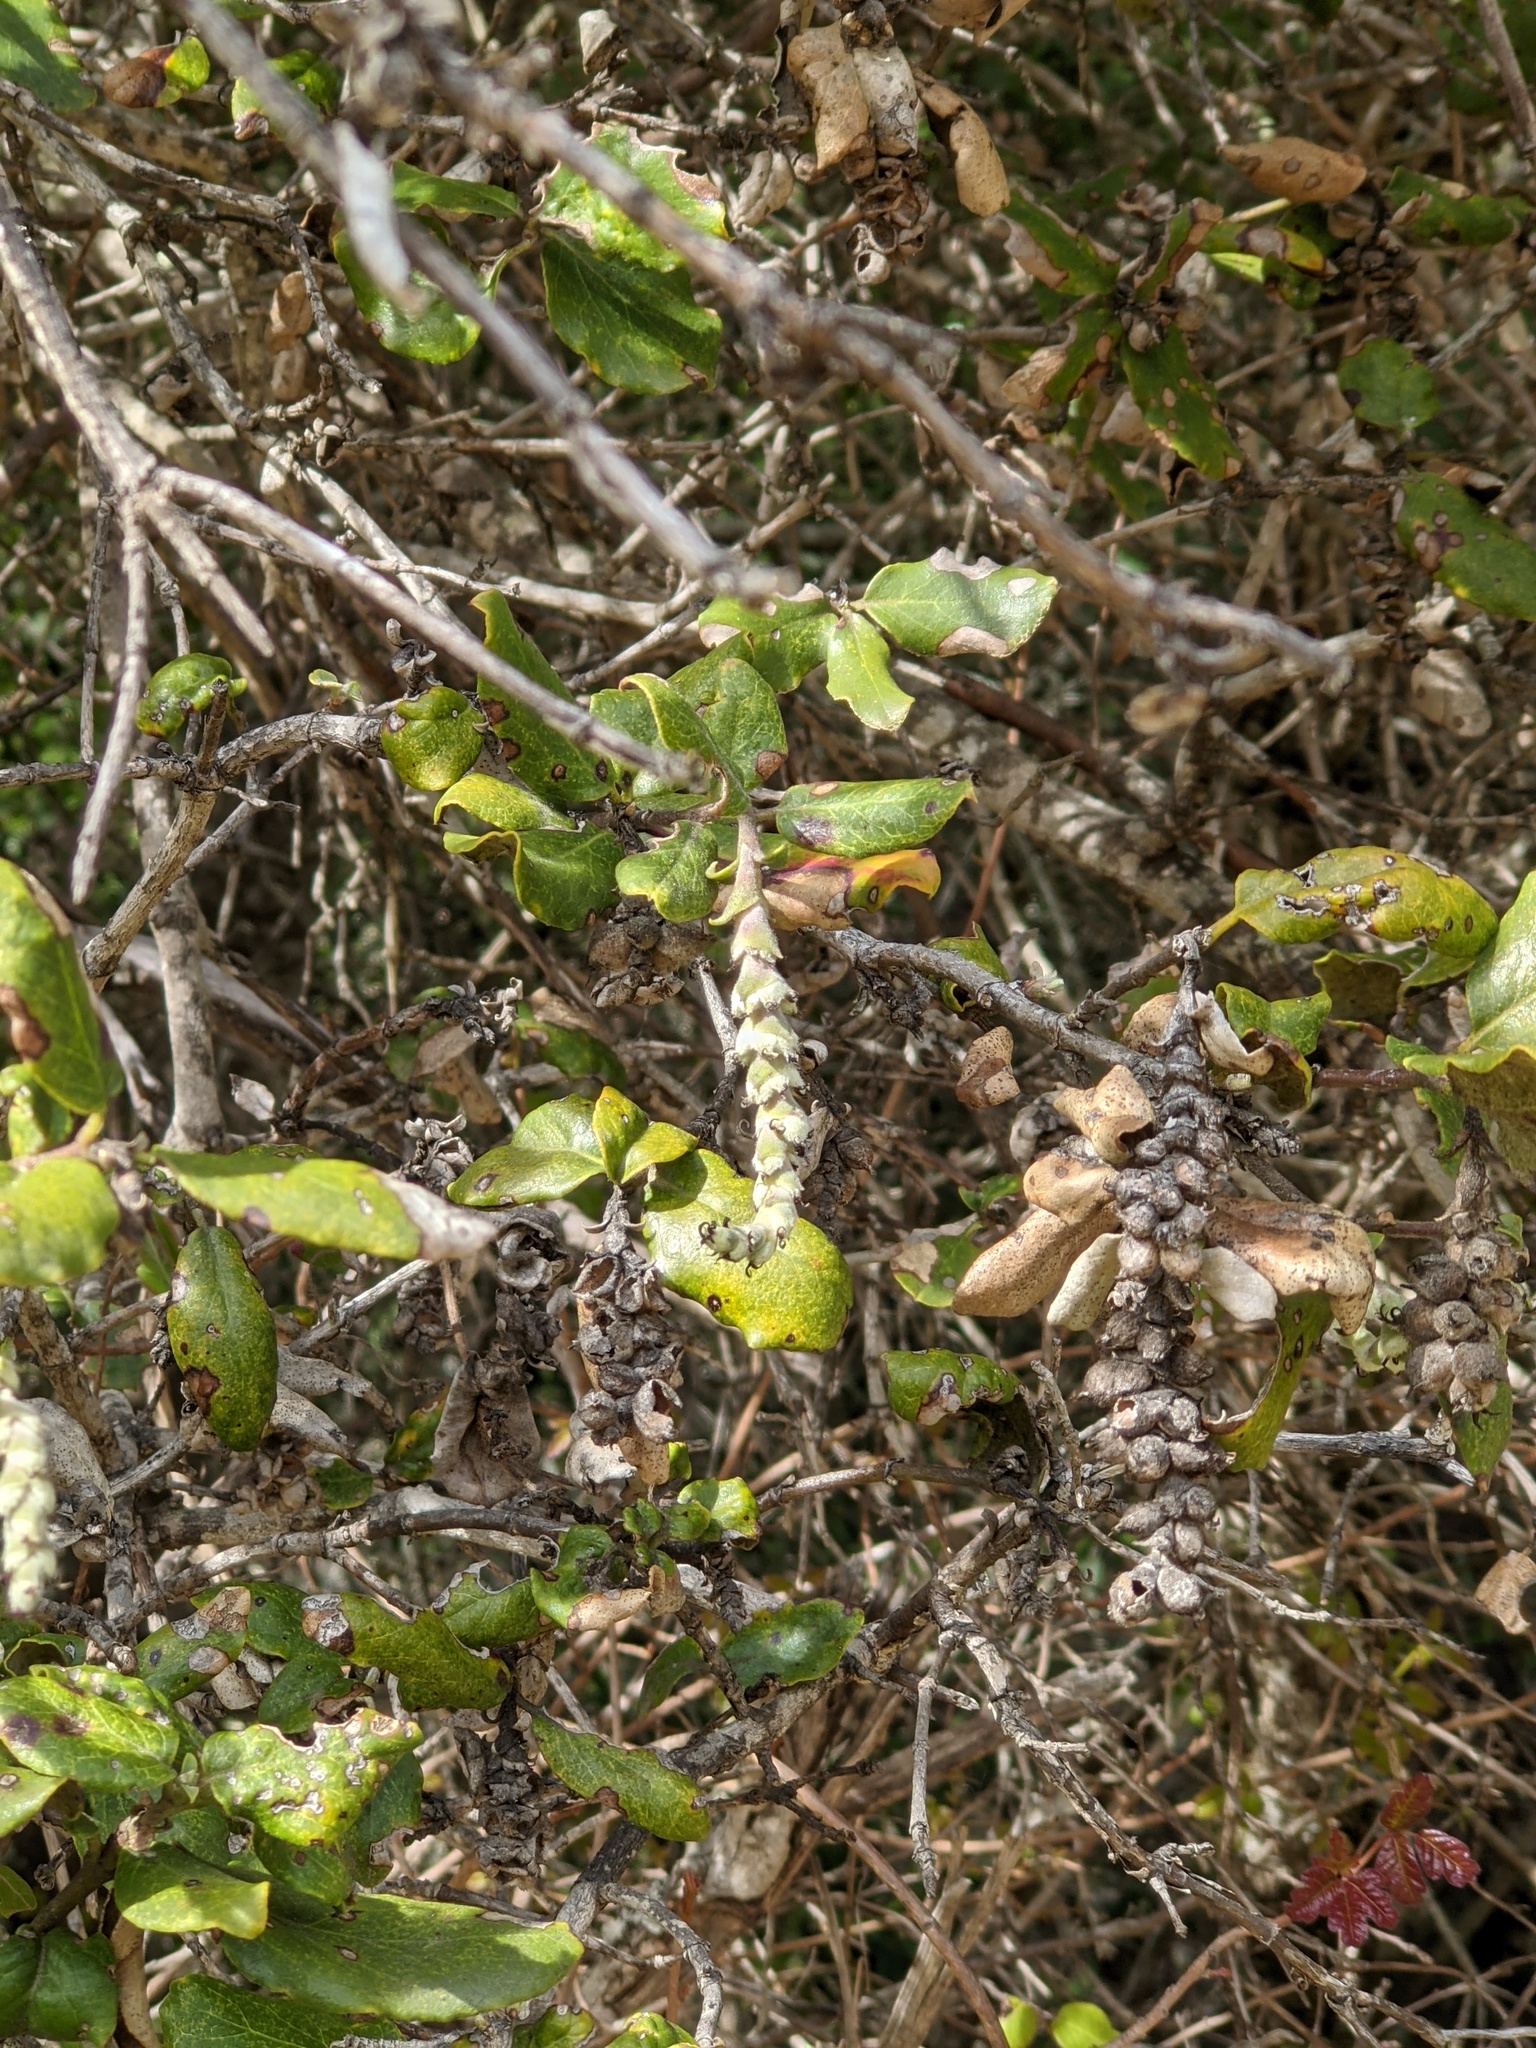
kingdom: Plantae
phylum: Tracheophyta
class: Magnoliopsida
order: Garryales
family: Garryaceae
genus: Garrya
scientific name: Garrya elliptica
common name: Silk-tassel
